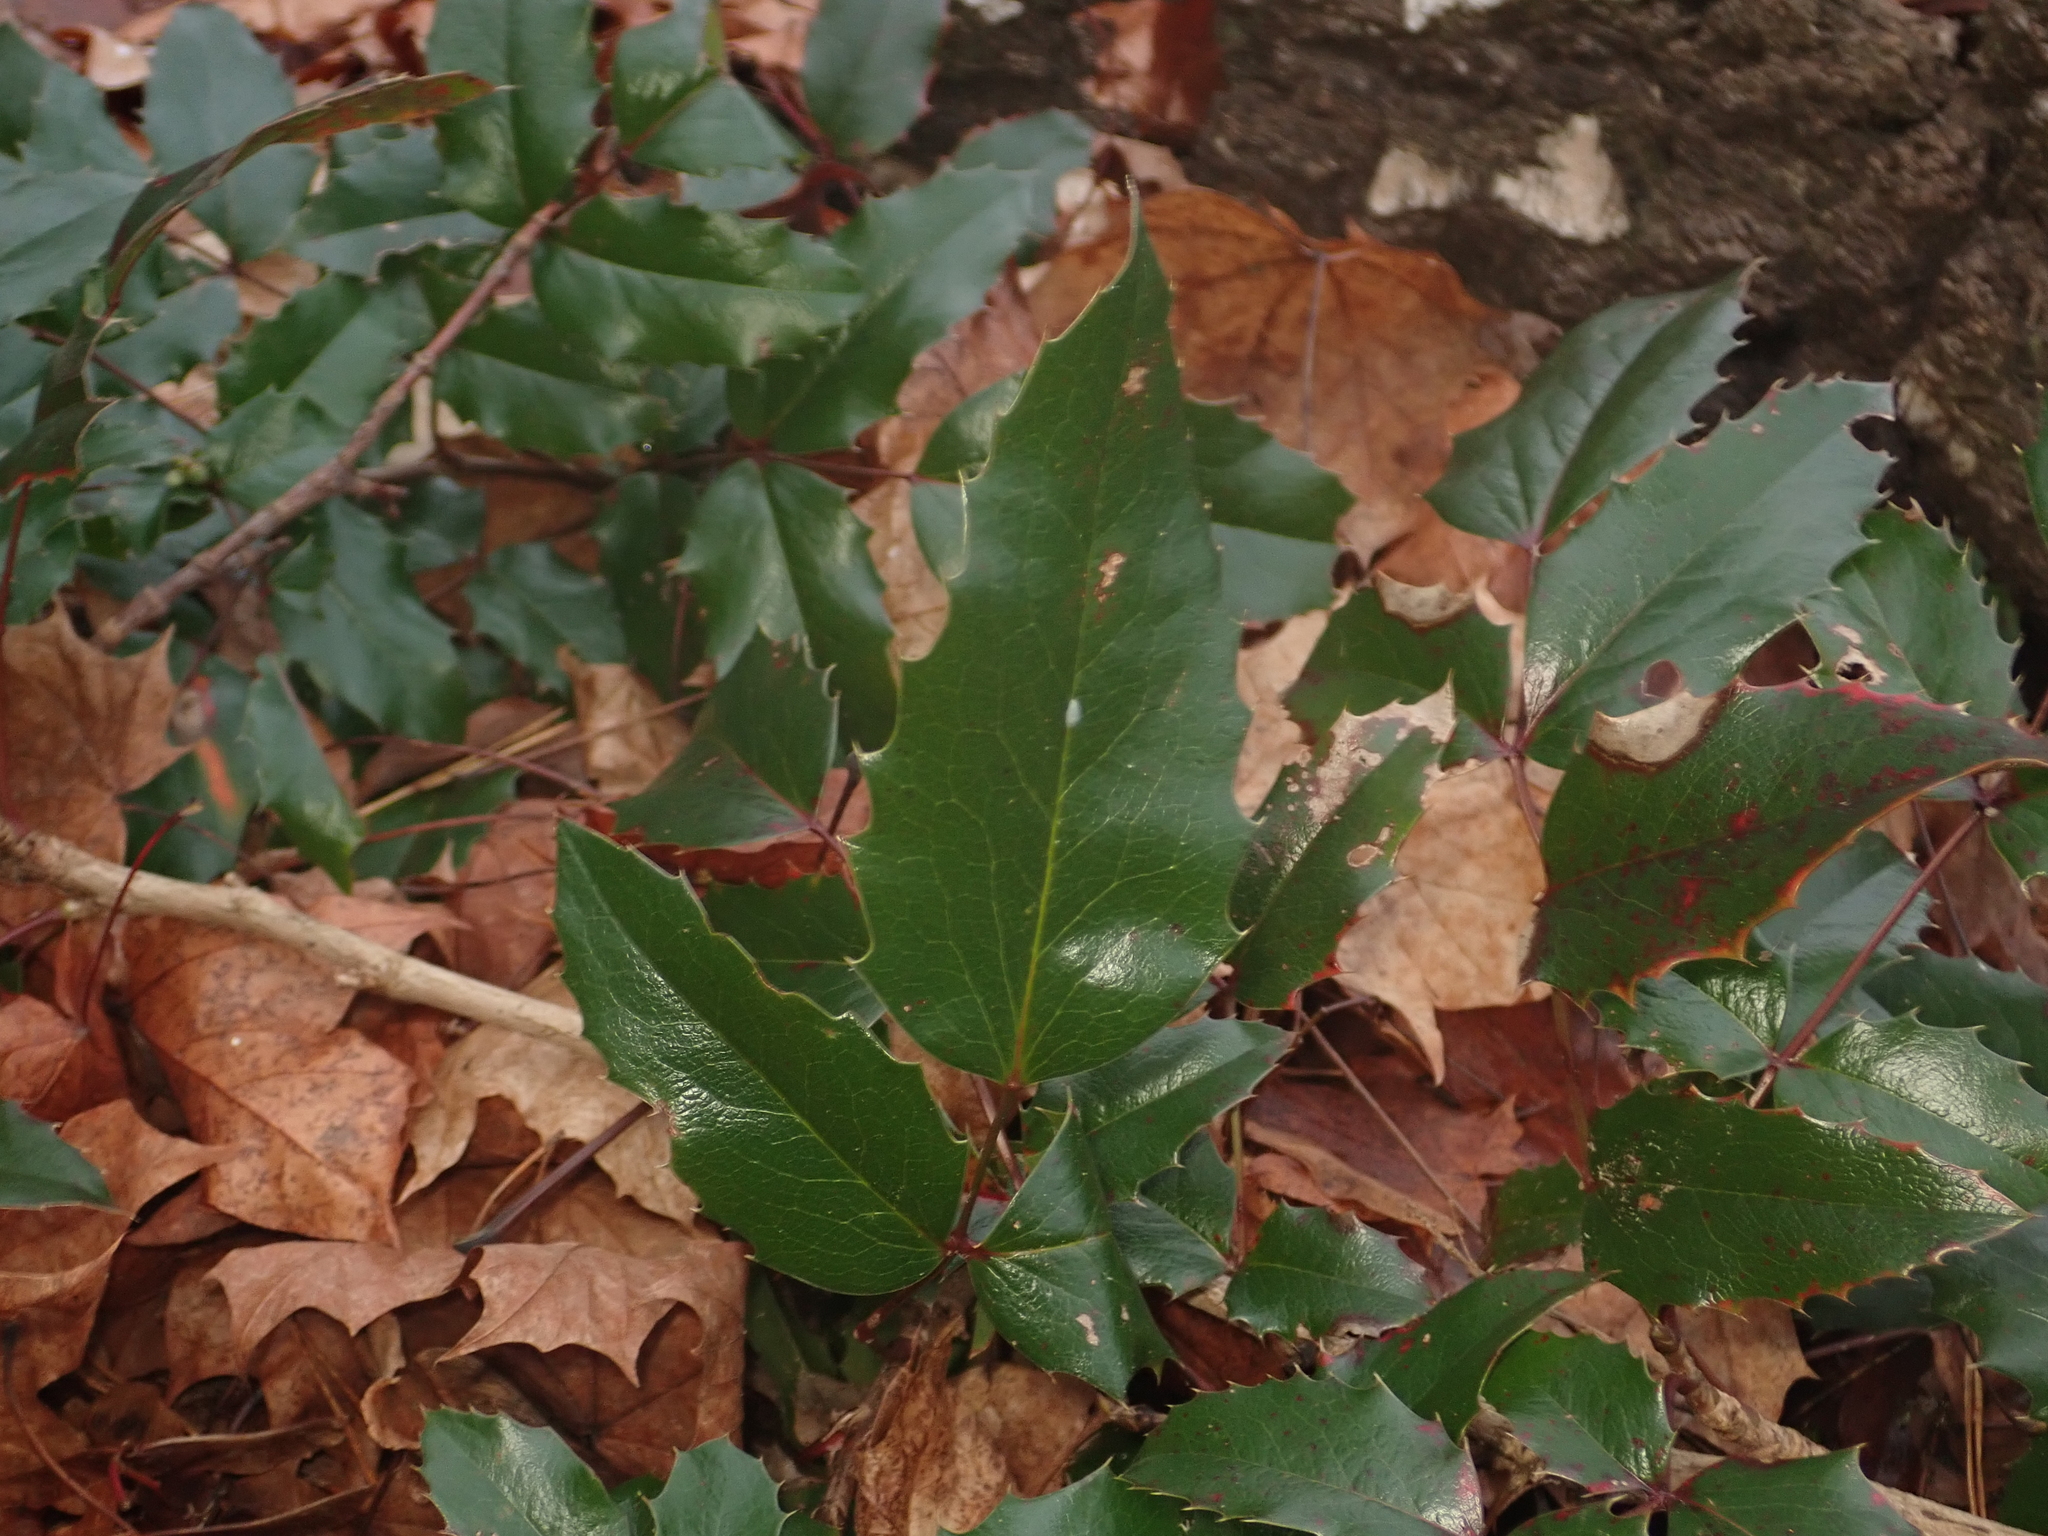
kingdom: Plantae
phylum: Tracheophyta
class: Magnoliopsida
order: Ranunculales
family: Berberidaceae
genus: Mahonia
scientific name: Mahonia aquifolium
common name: Oregon-grape
